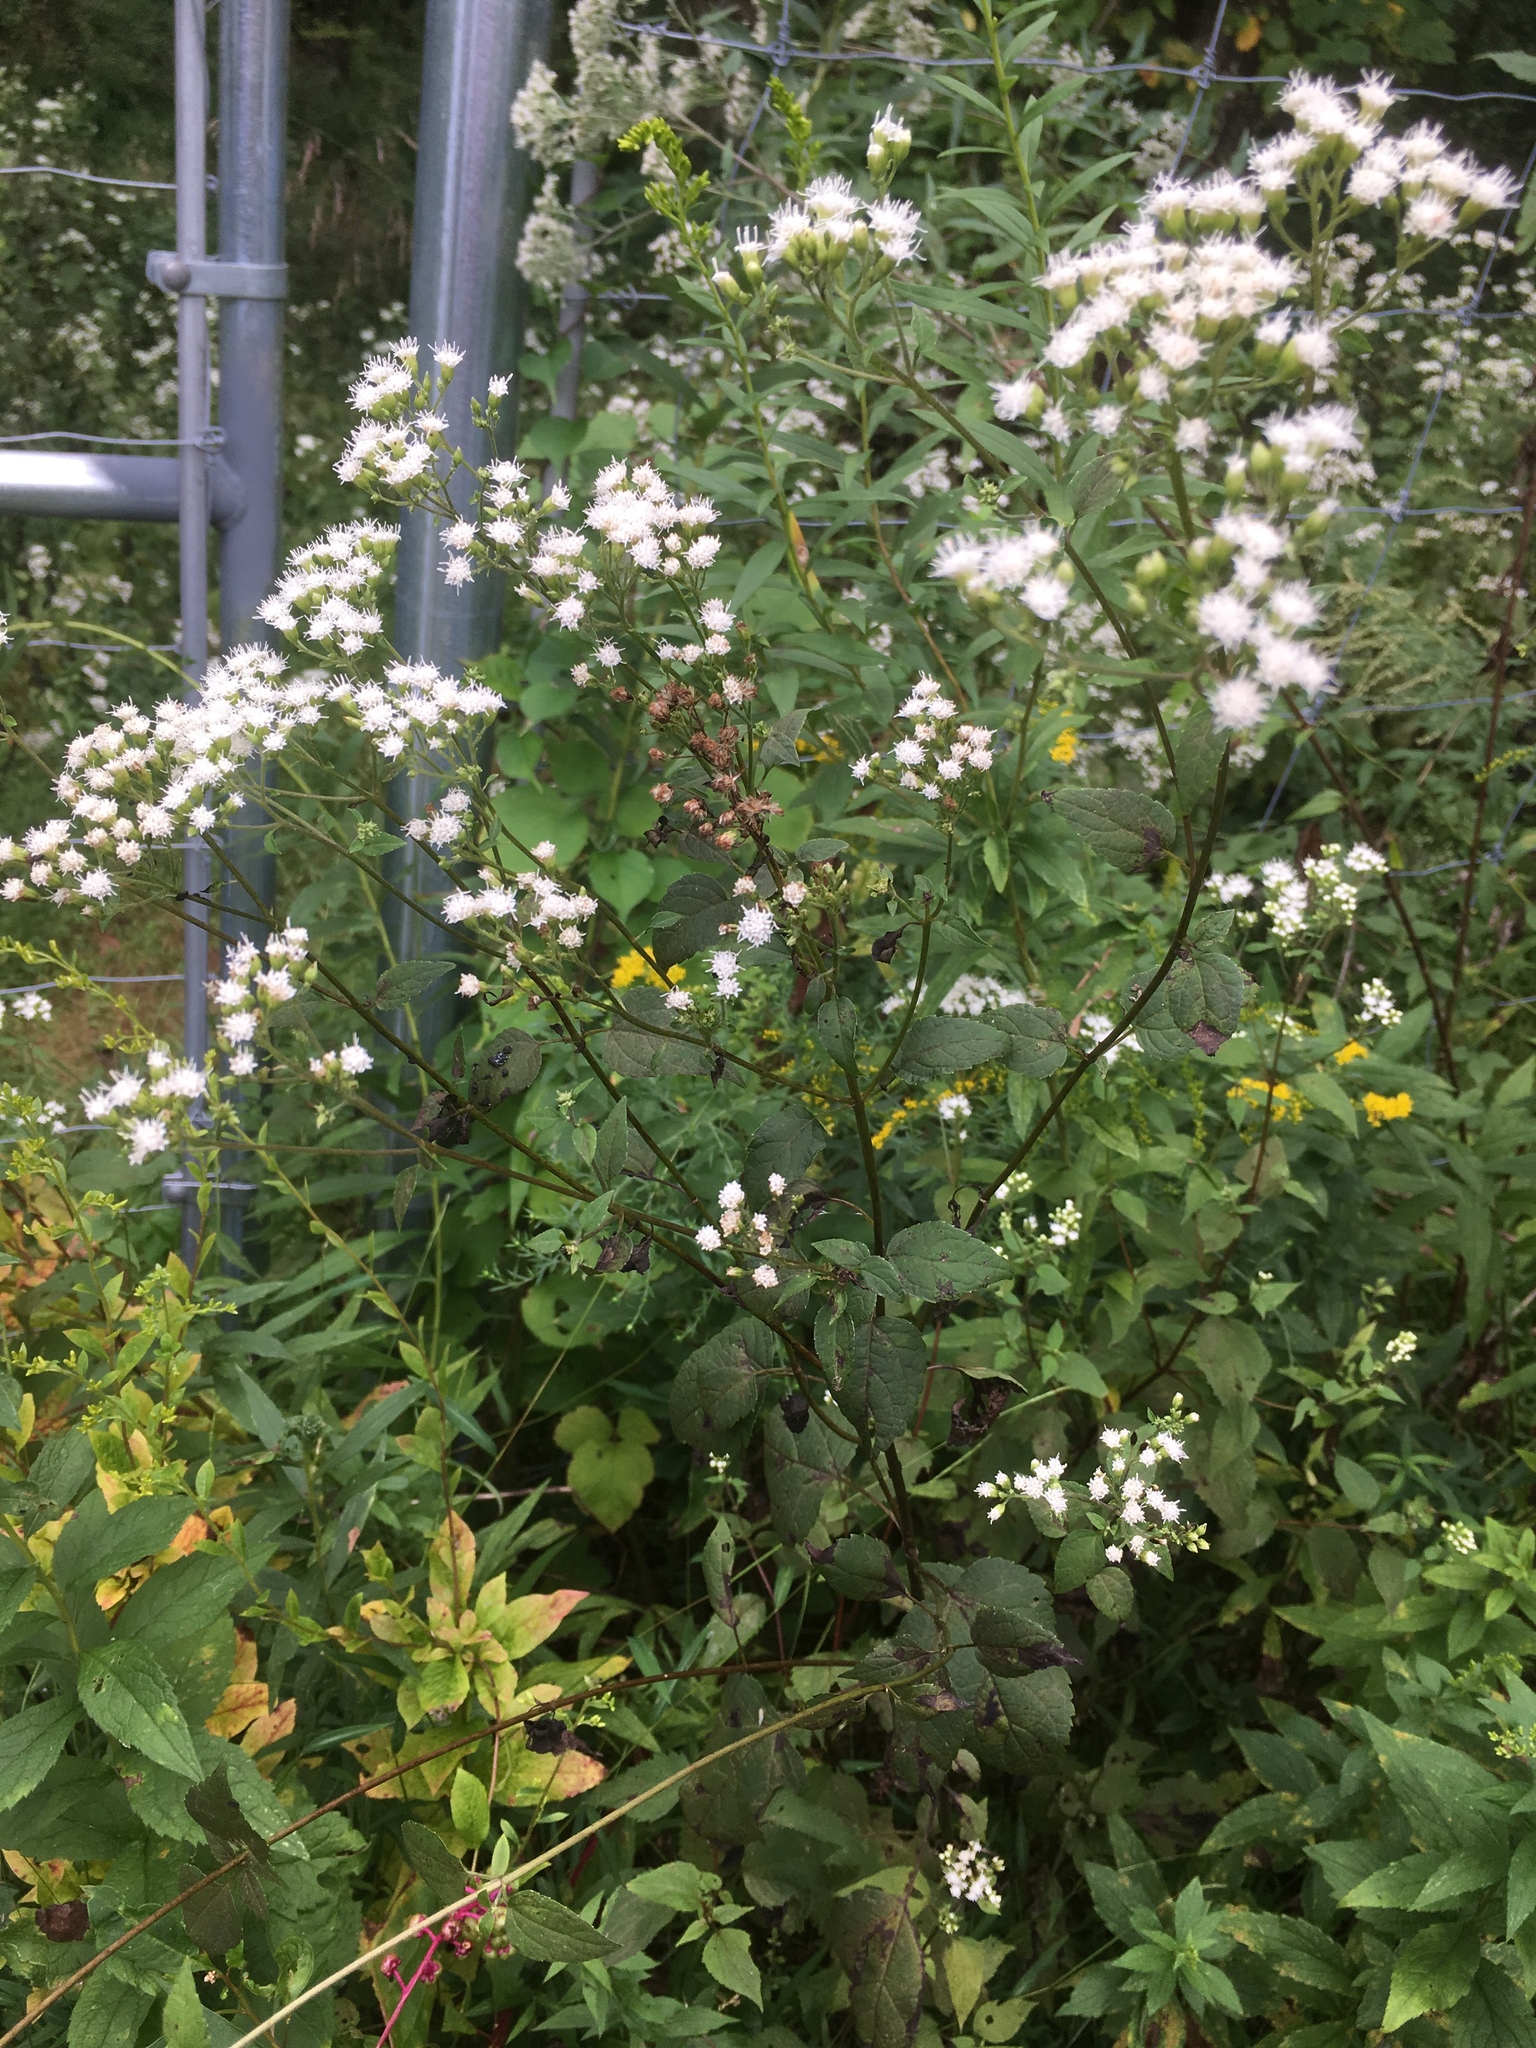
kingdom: Plantae
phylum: Tracheophyta
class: Magnoliopsida
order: Asterales
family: Asteraceae
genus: Ageratina
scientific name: Ageratina altissima
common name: White snakeroot
